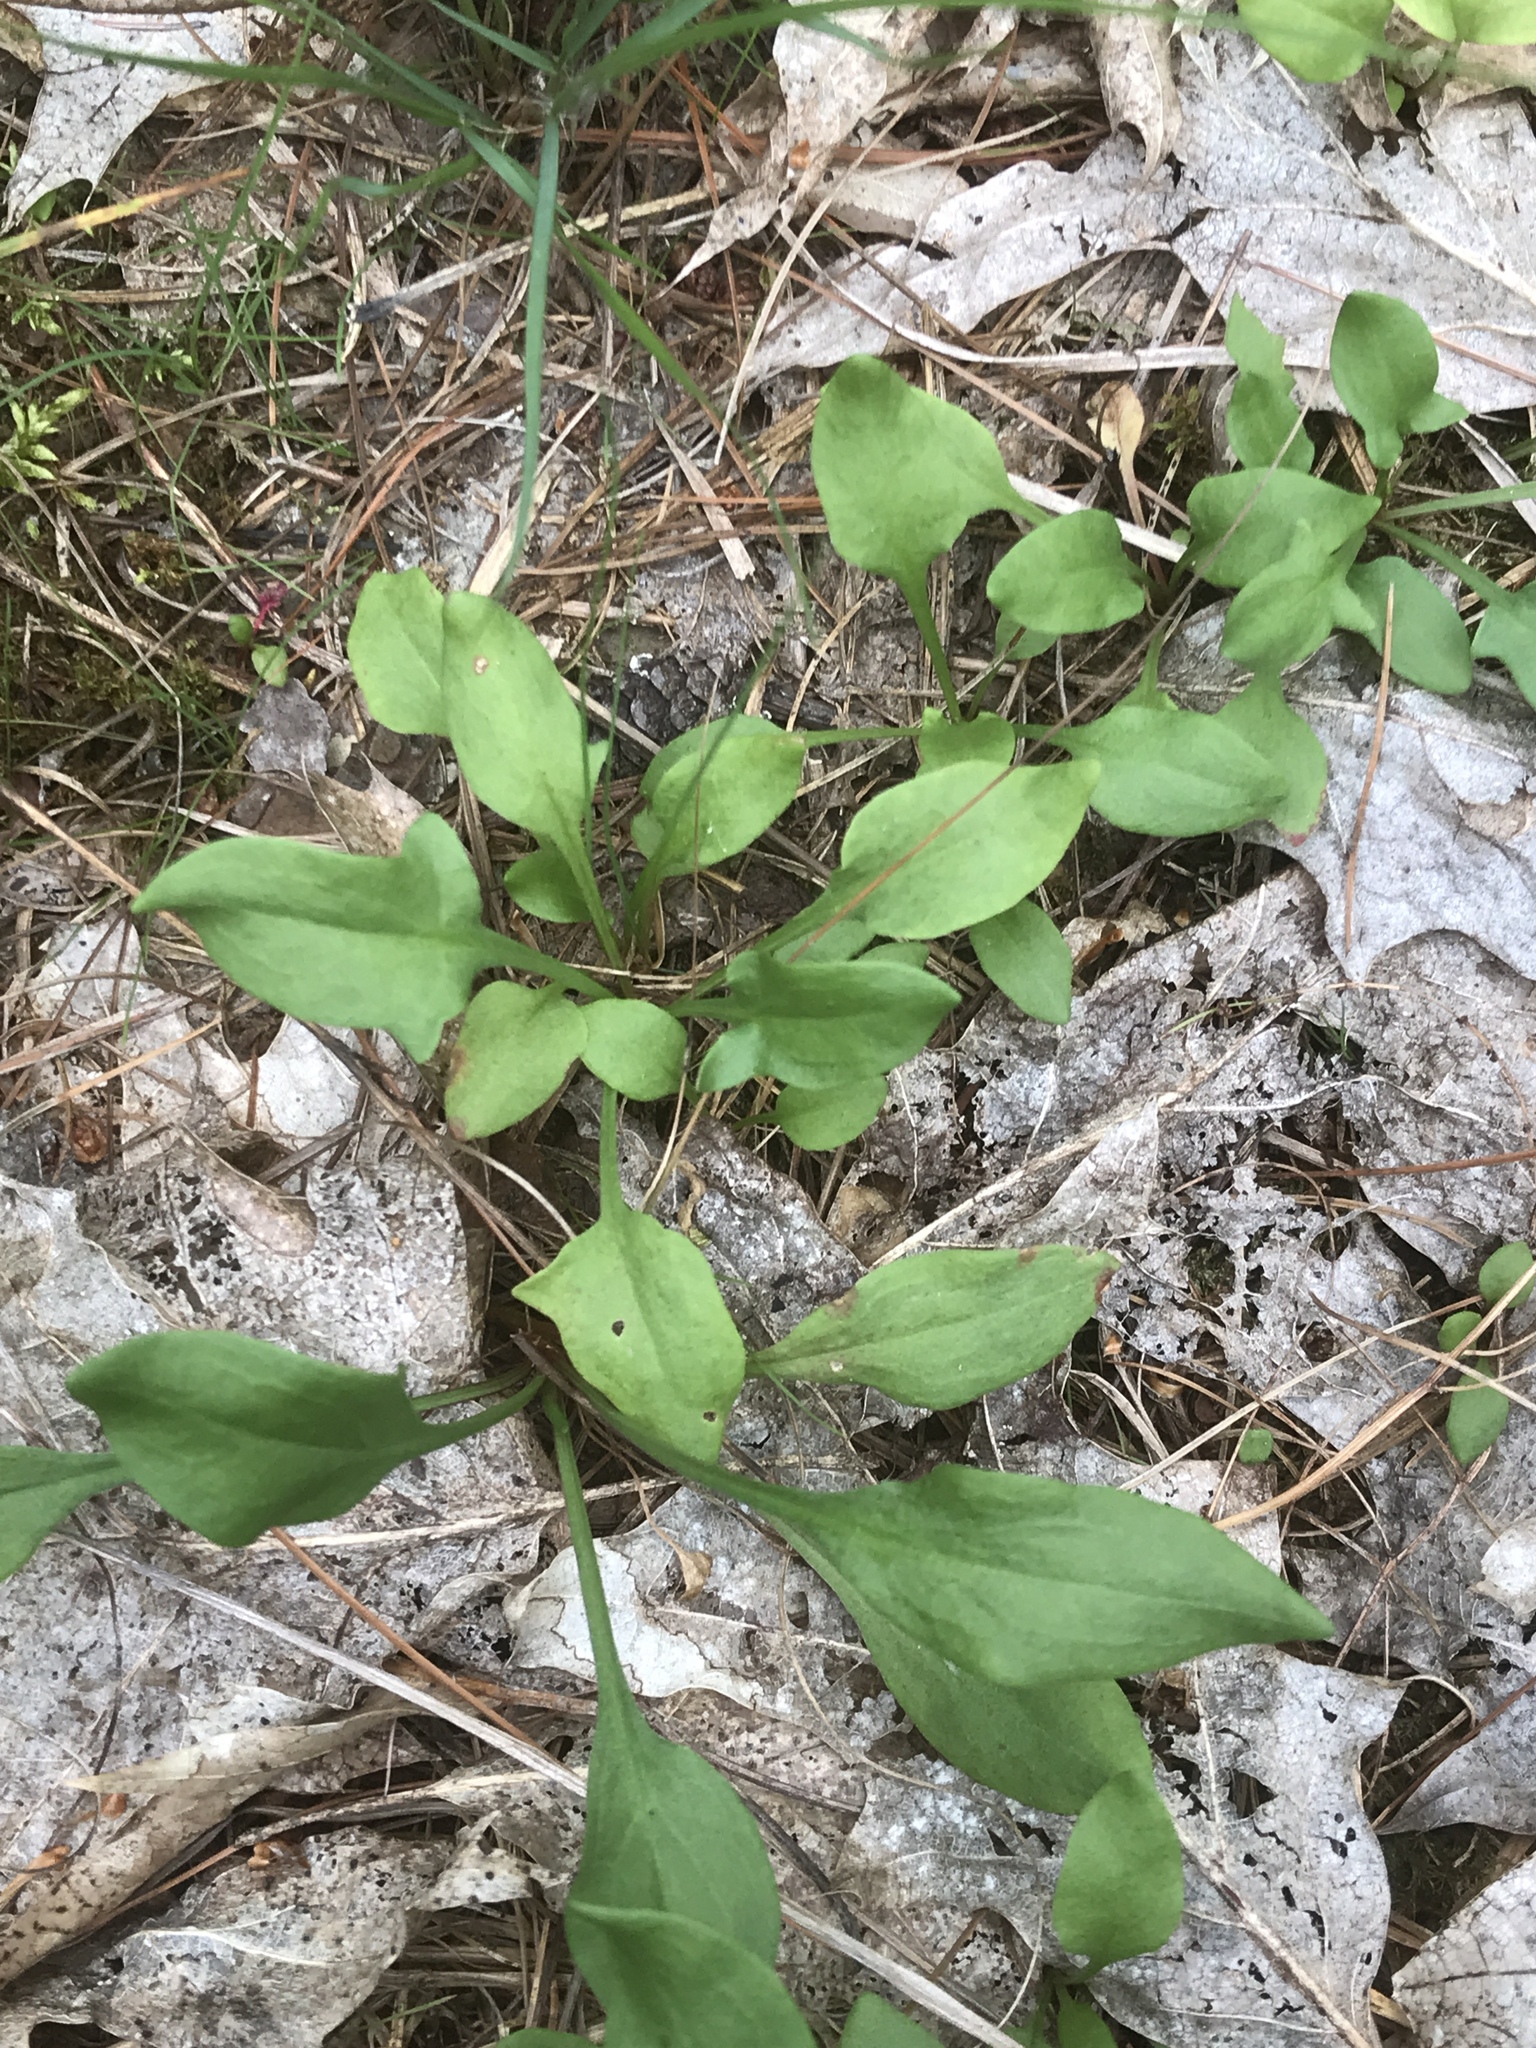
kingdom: Plantae
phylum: Tracheophyta
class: Magnoliopsida
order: Caryophyllales
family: Polygonaceae
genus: Rumex
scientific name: Rumex acetosella
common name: Common sheep sorrel
